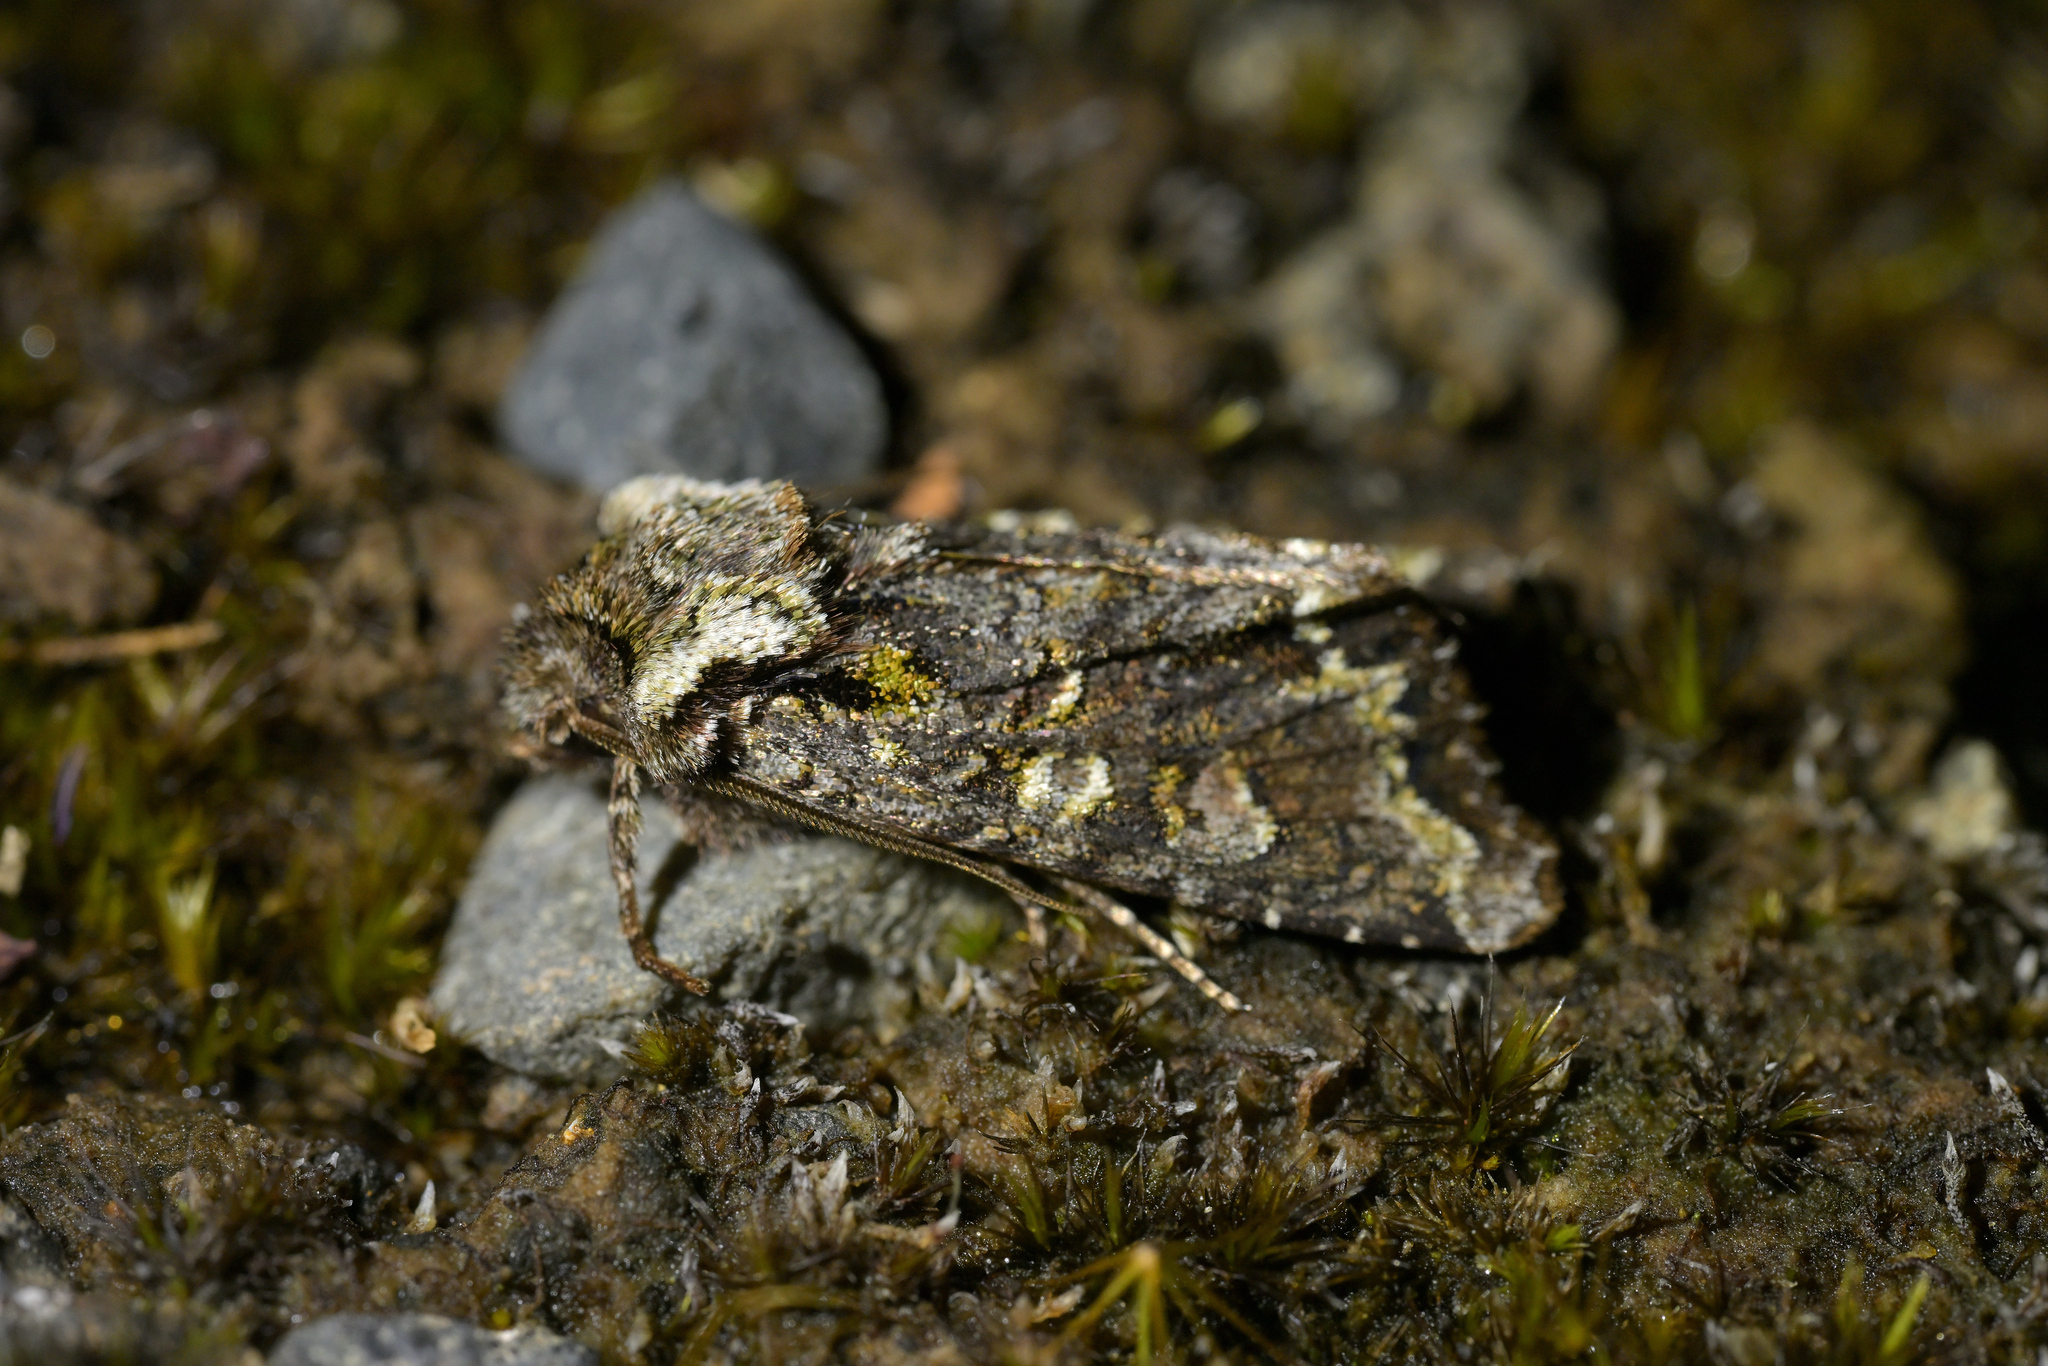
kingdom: Animalia
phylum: Arthropoda
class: Insecta
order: Lepidoptera
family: Noctuidae
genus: Ichneutica
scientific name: Ichneutica pelanodes
